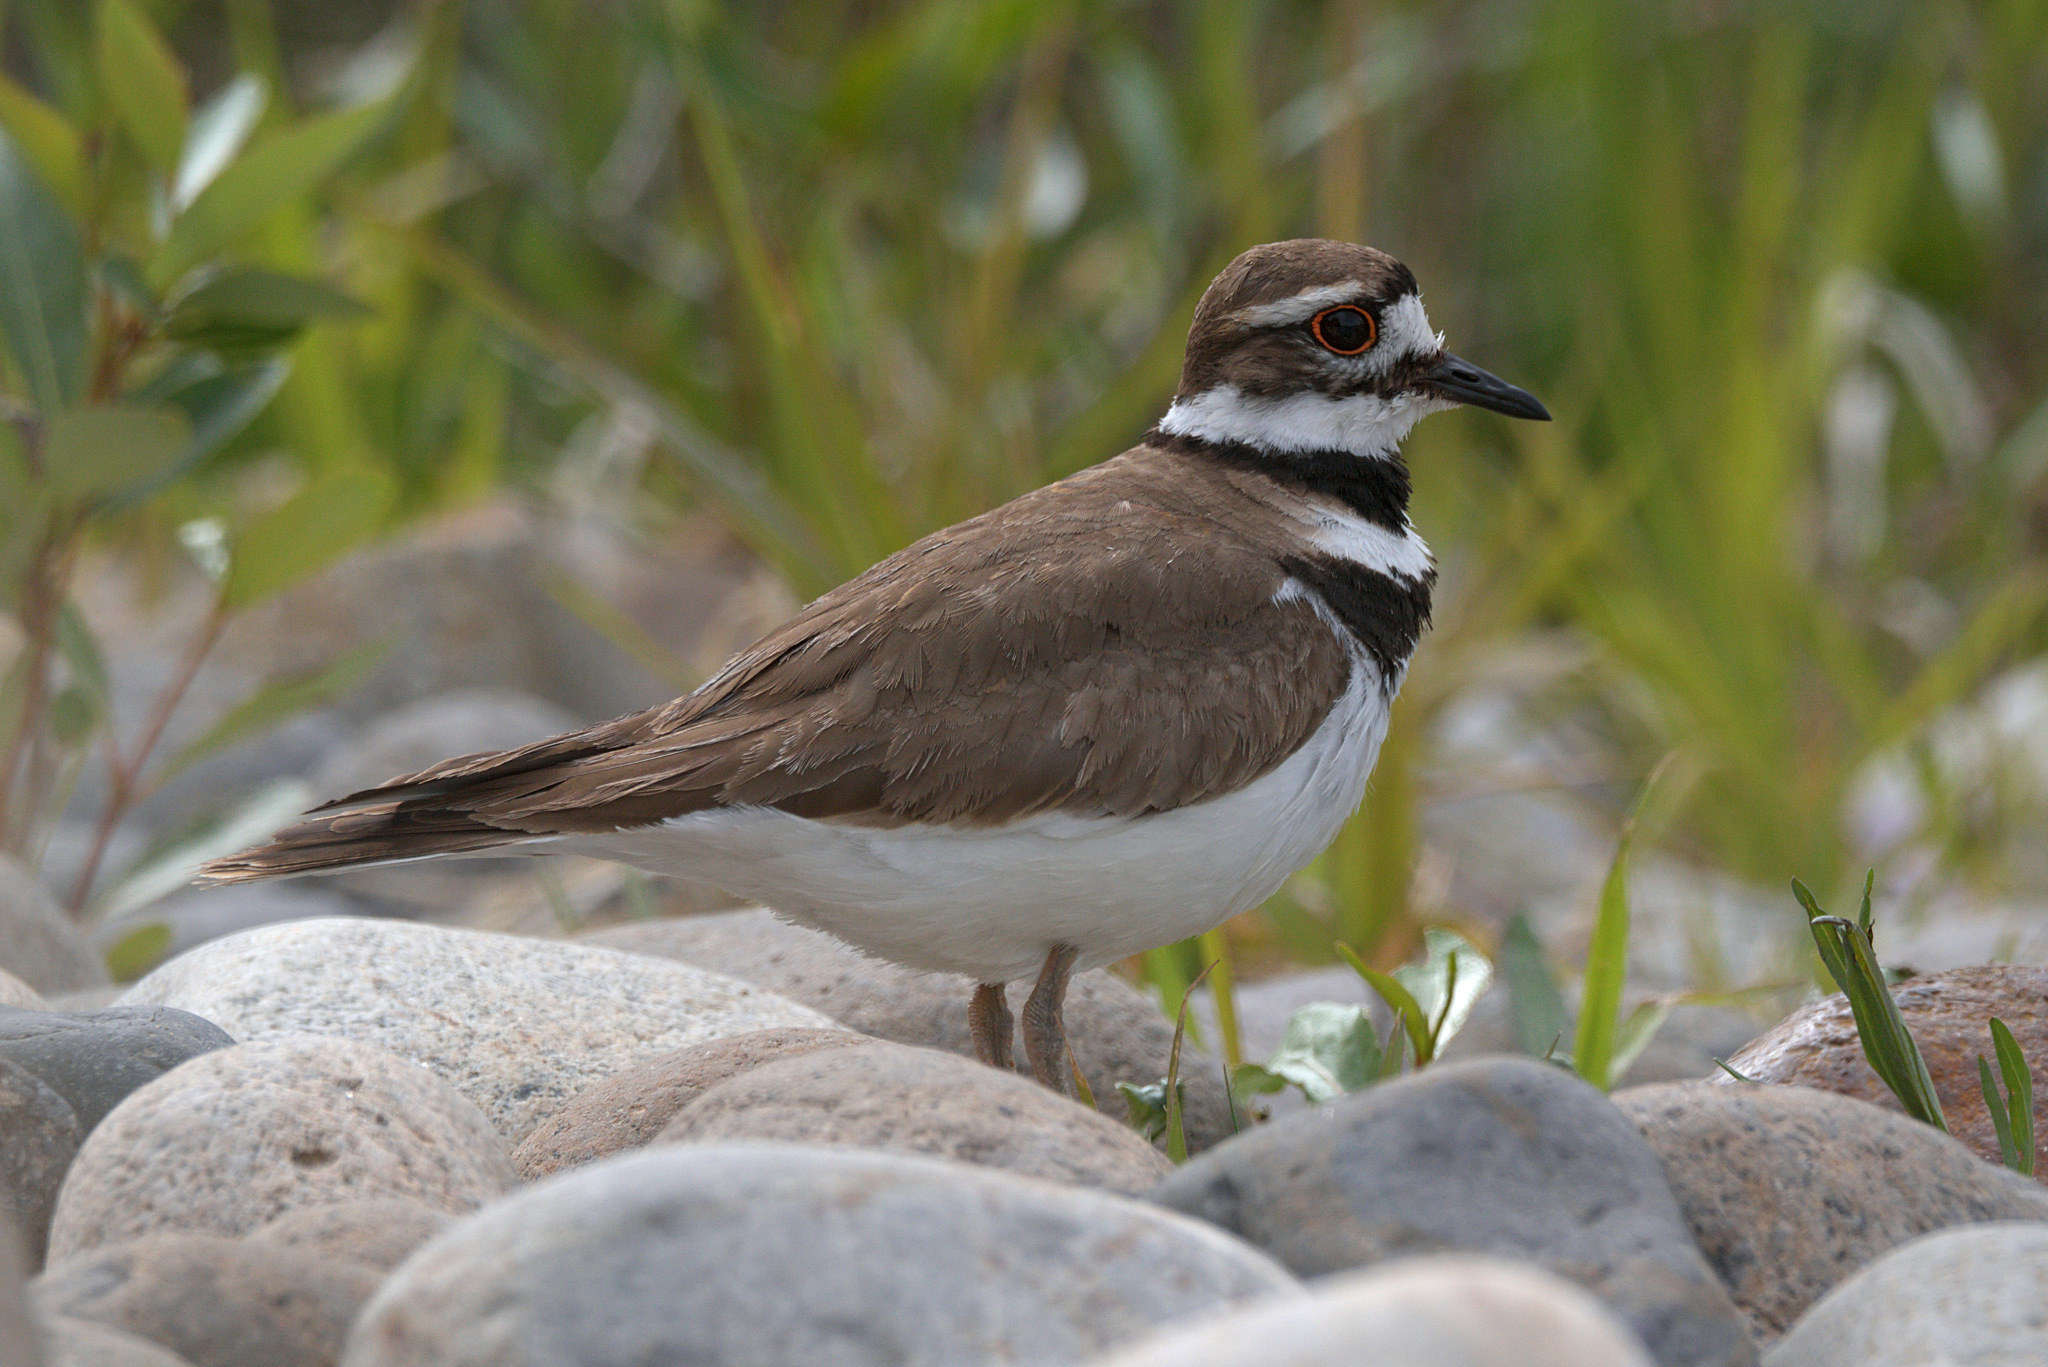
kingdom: Animalia
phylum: Chordata
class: Aves
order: Charadriiformes
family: Charadriidae
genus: Charadrius
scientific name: Charadrius vociferus
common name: Killdeer
